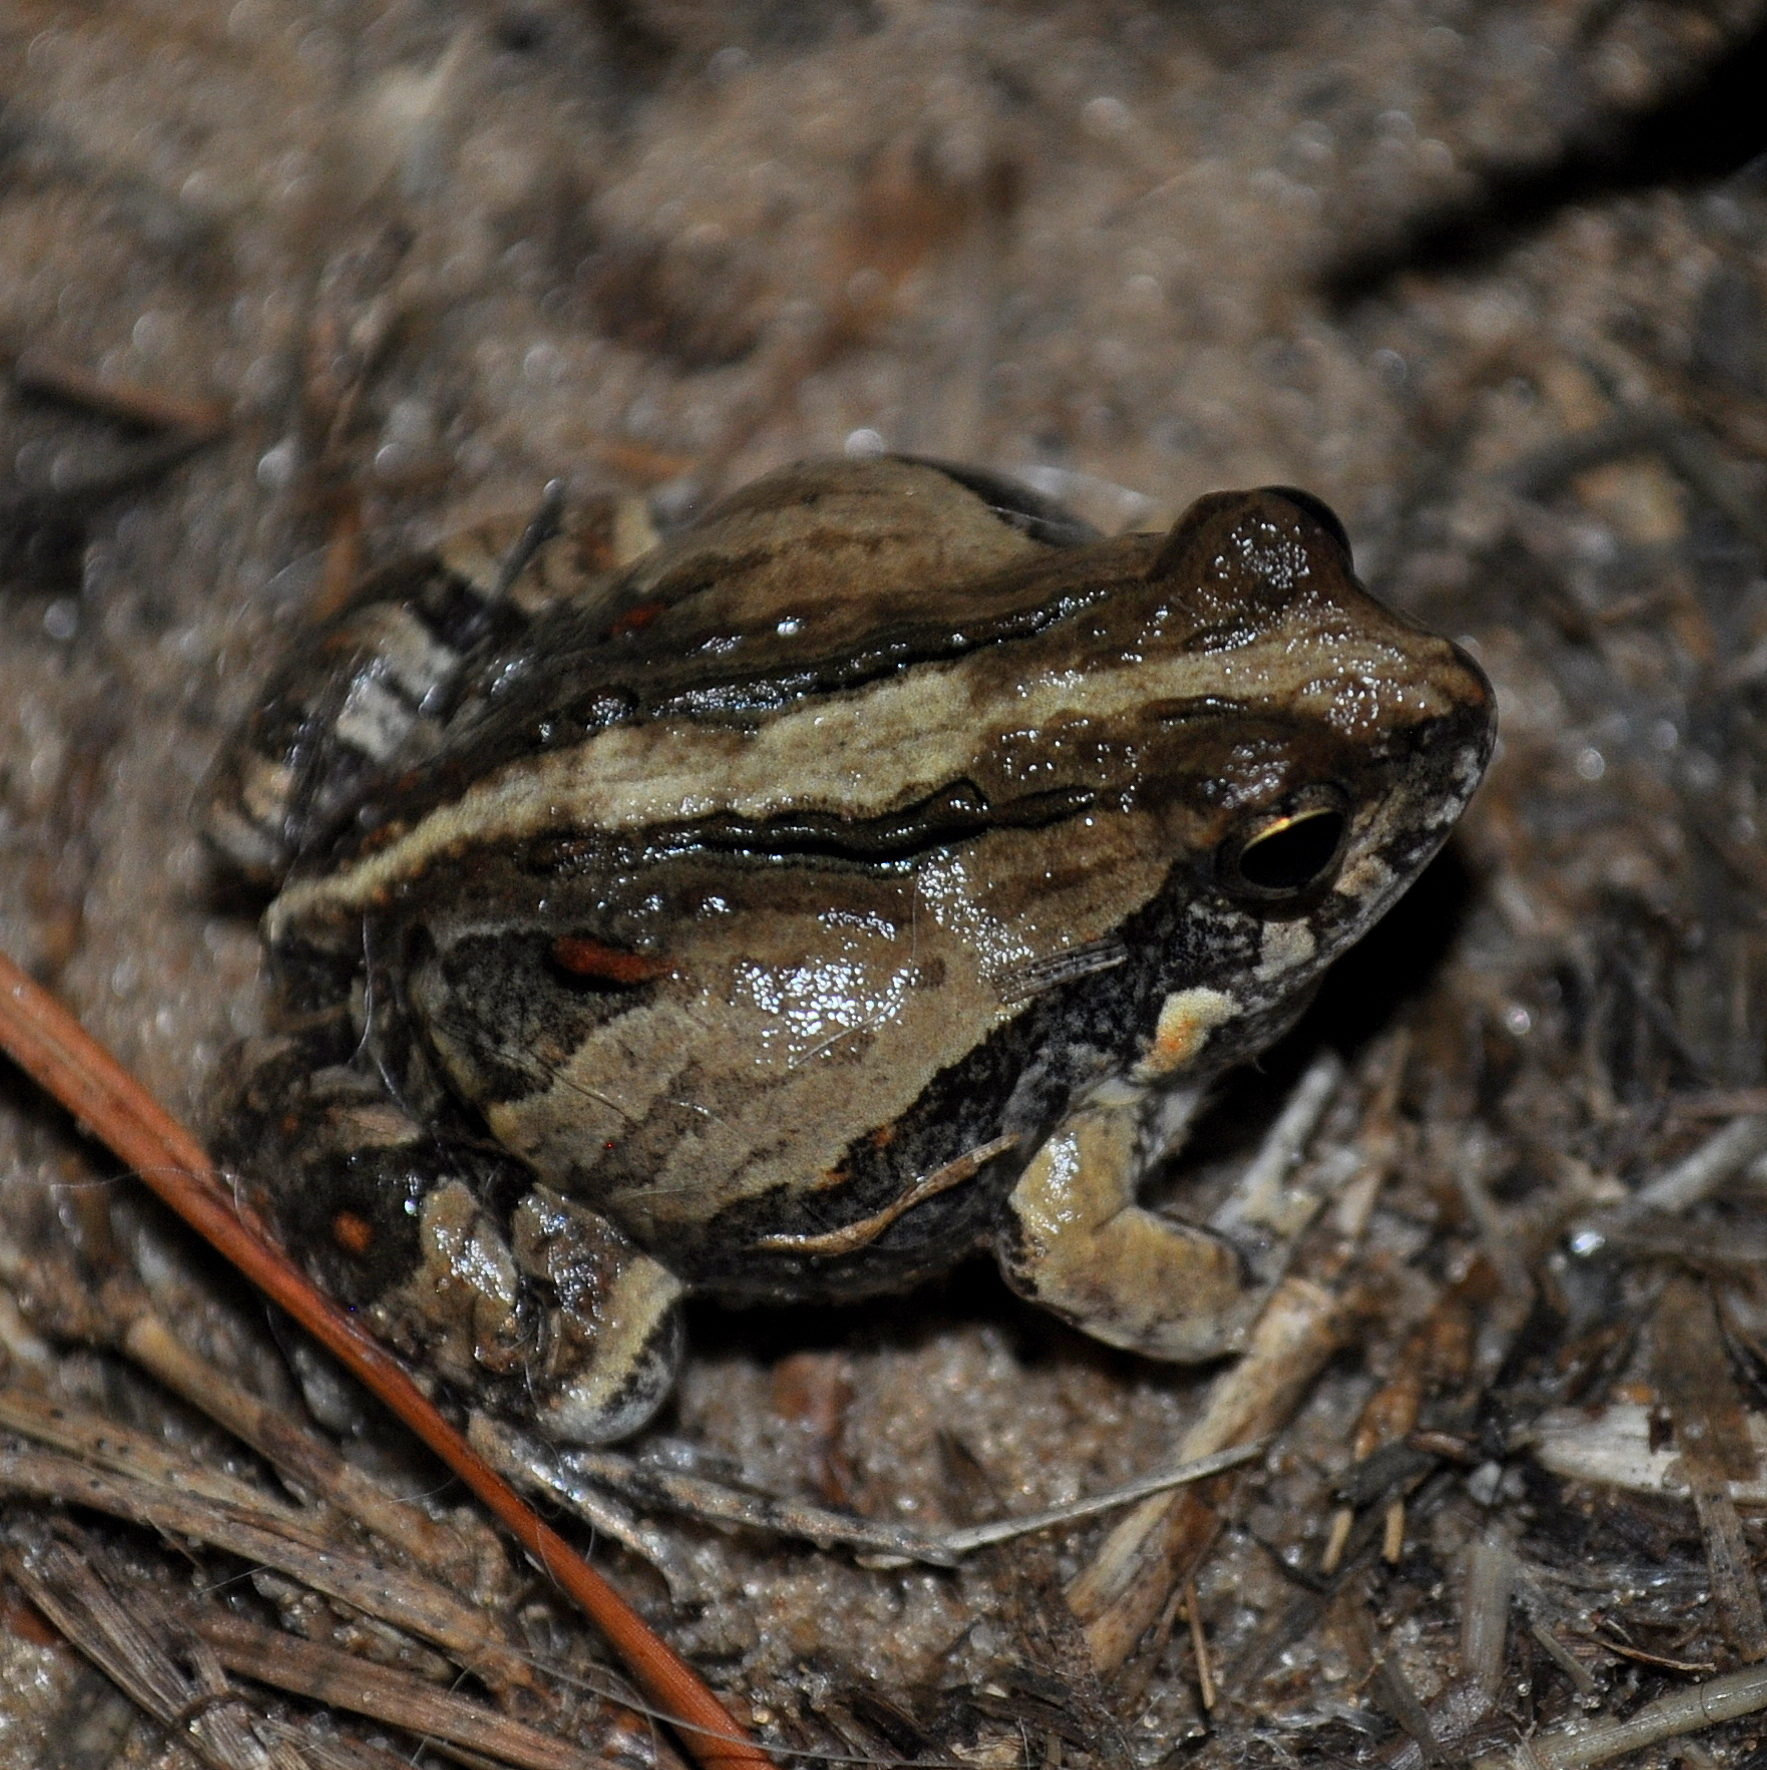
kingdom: Animalia
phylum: Chordata
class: Amphibia
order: Anura
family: Leptodactylidae
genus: Physalaemus
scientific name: Physalaemus biligonigerus
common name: Weeping frog
